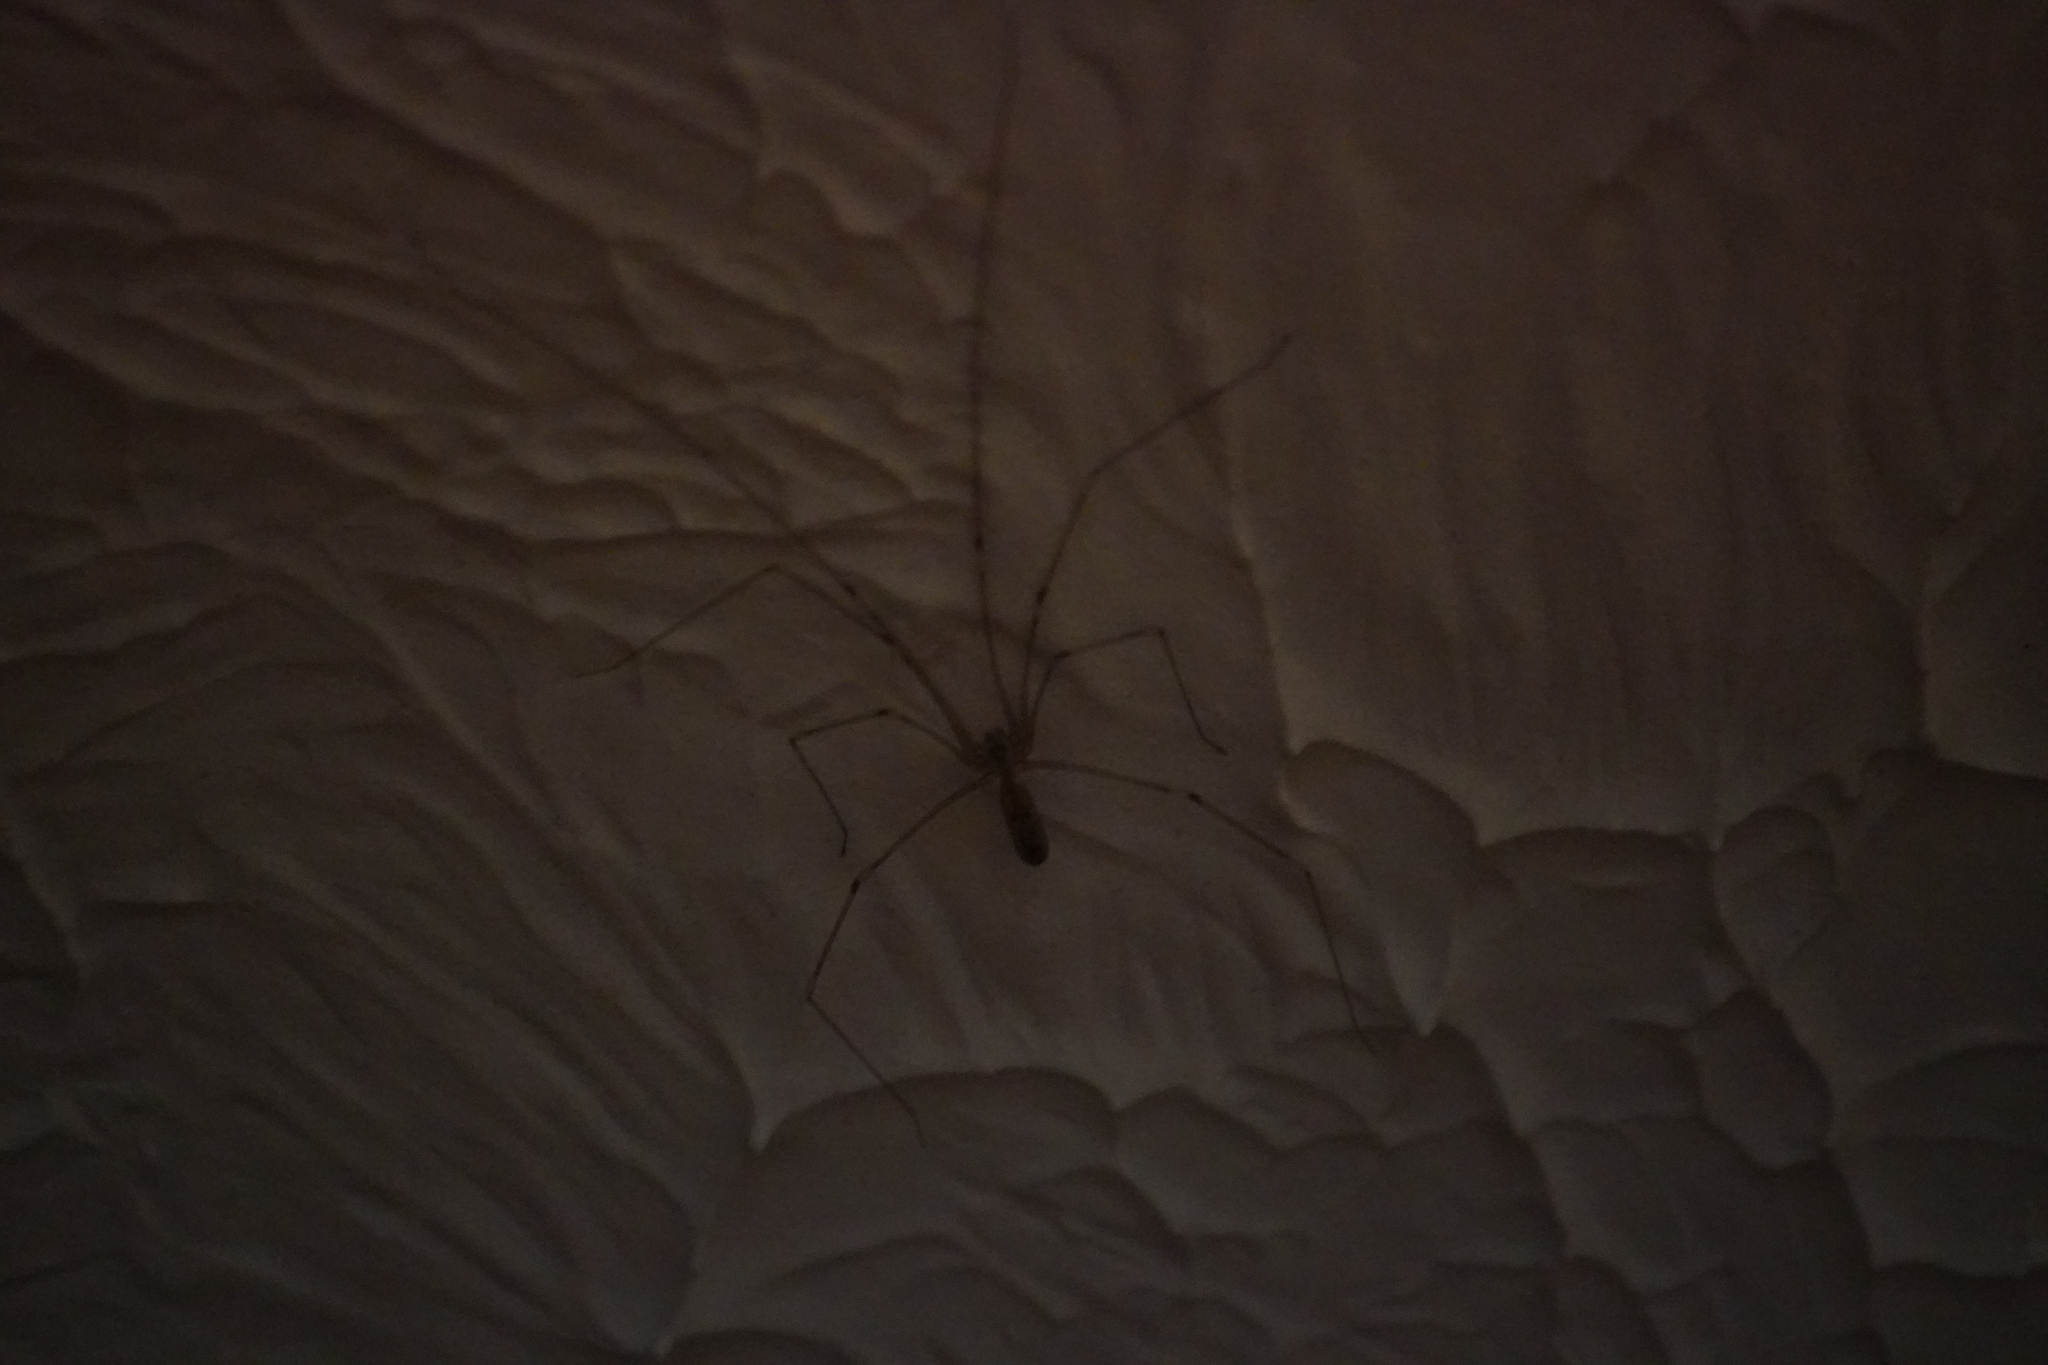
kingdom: Animalia
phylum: Arthropoda
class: Arachnida
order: Araneae
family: Pholcidae
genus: Pholcus
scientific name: Pholcus
